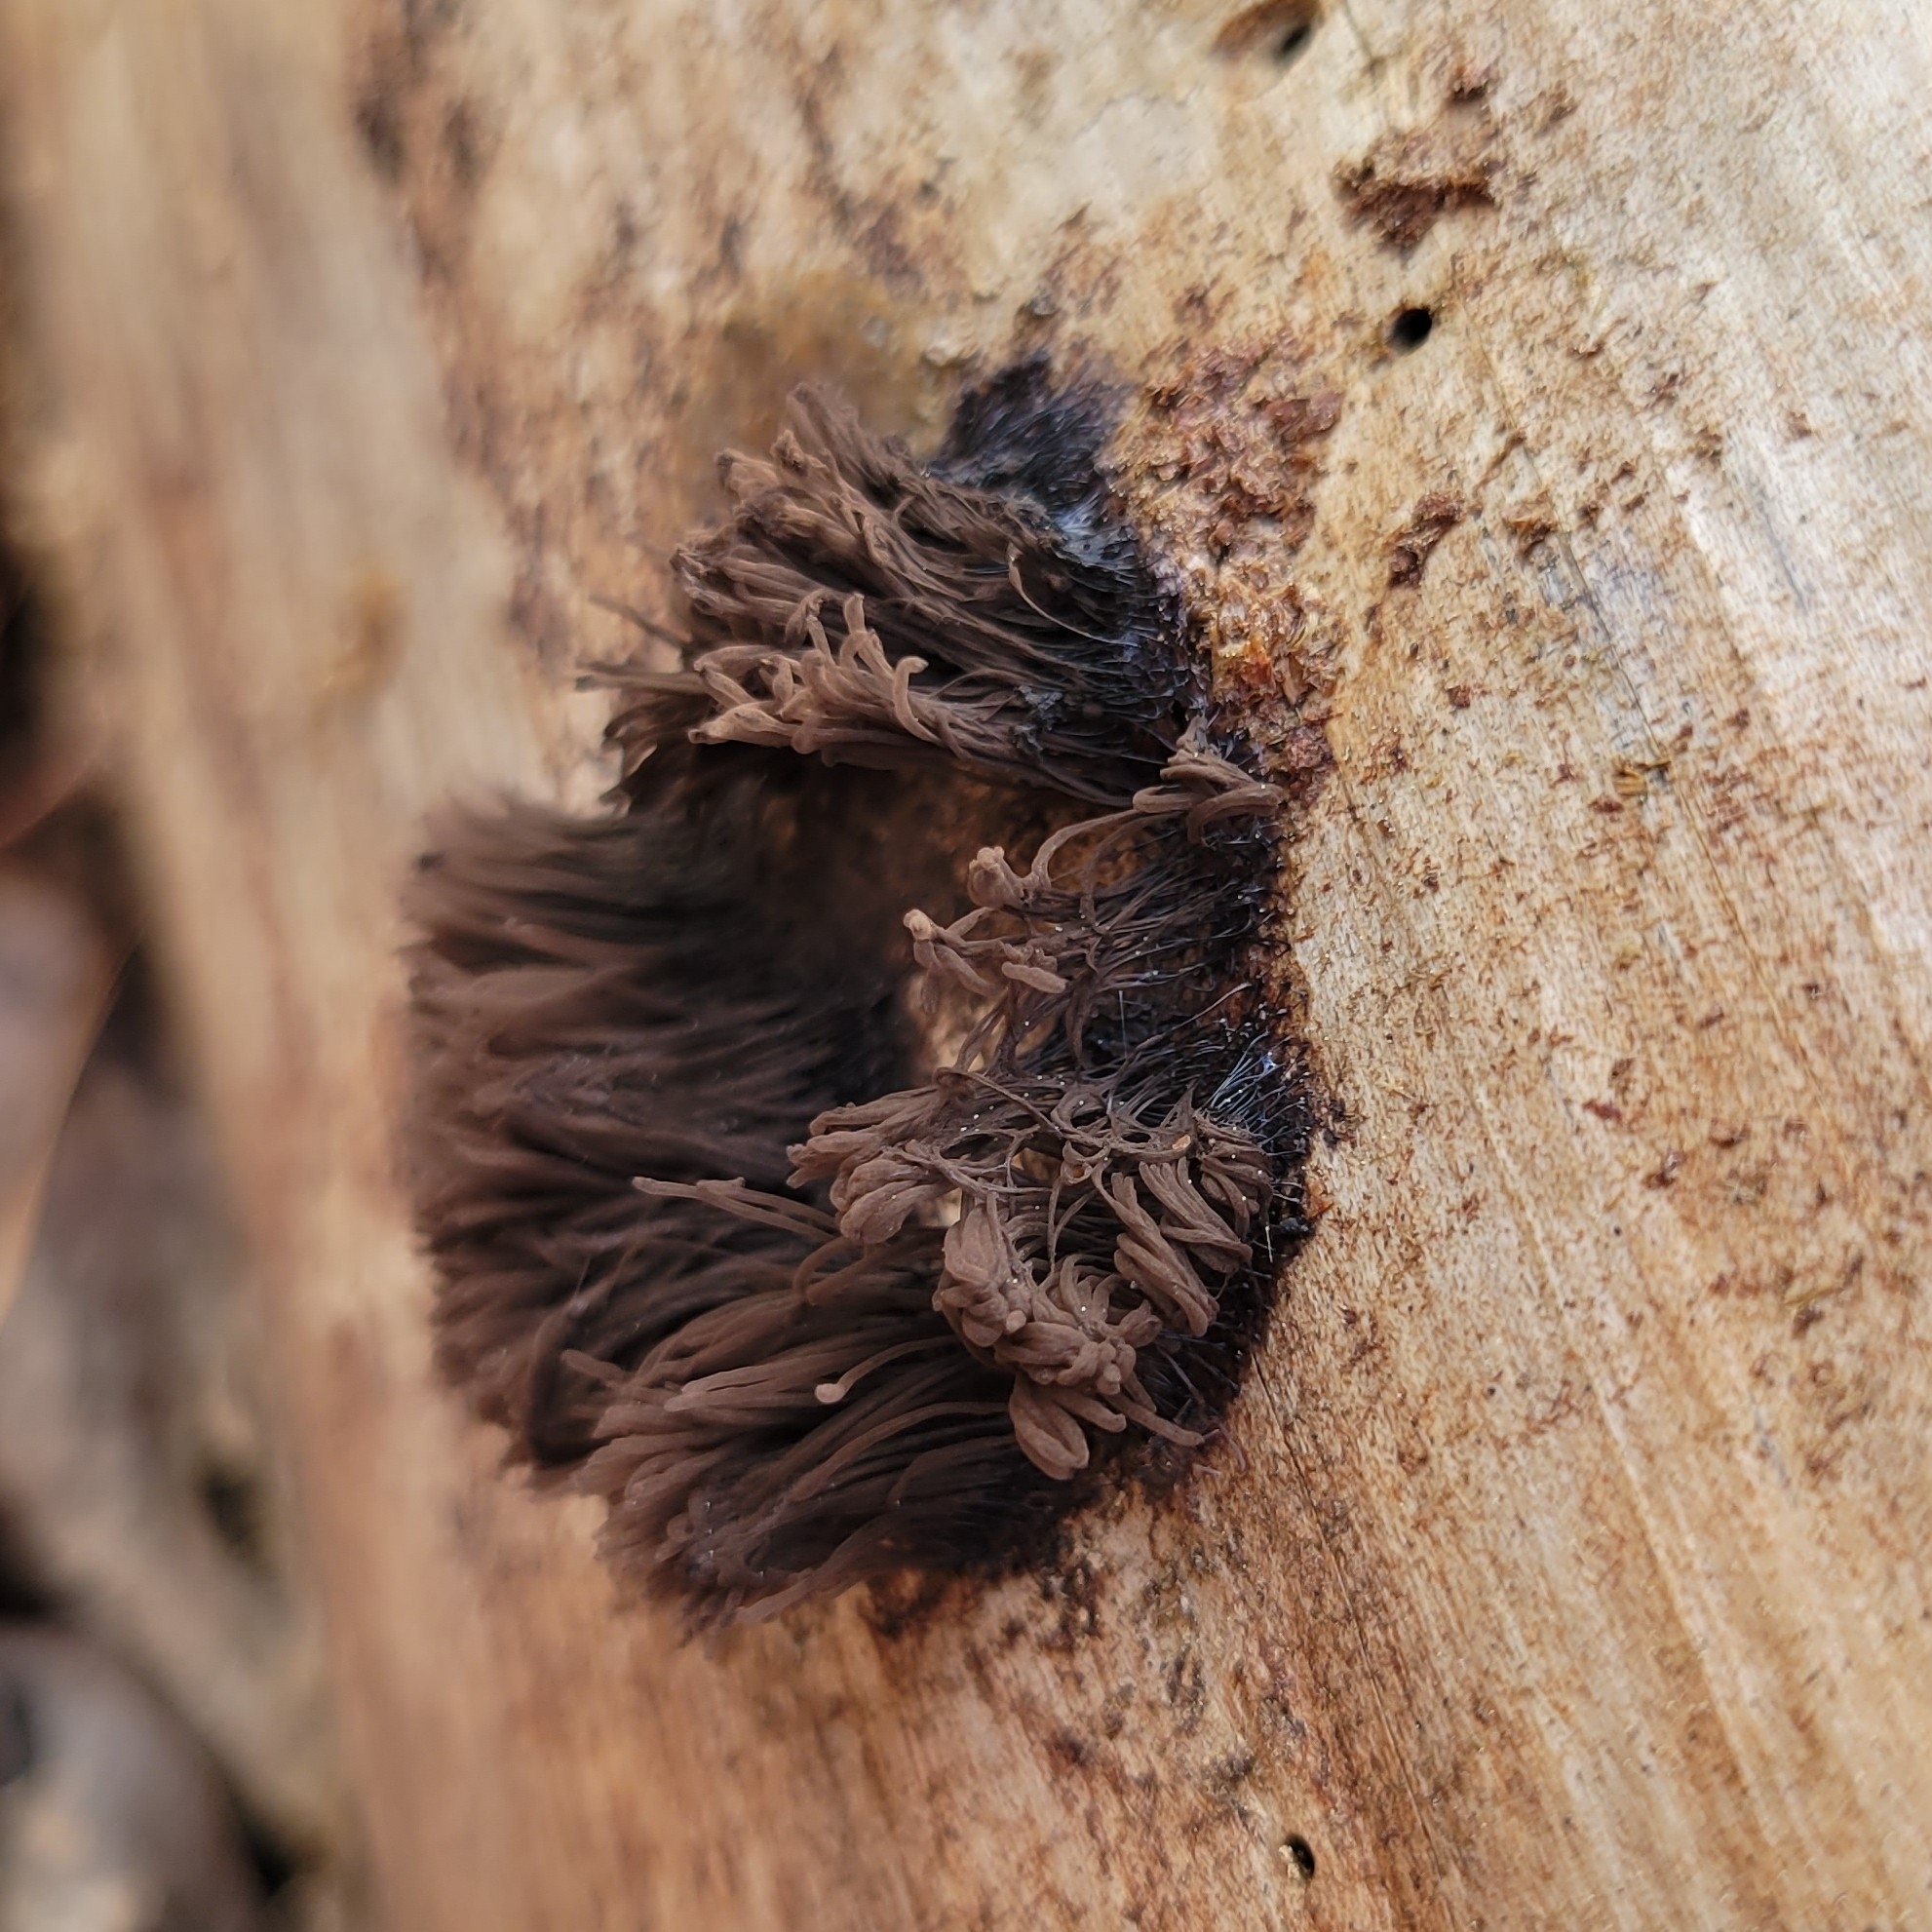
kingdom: Protozoa
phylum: Mycetozoa
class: Myxomycetes
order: Stemonitidales
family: Stemonitidaceae
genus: Stemonitis
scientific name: Stemonitis splendens
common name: Chocolate tube slime
